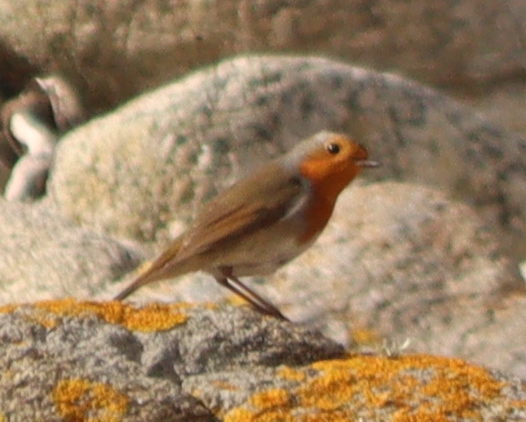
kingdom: Animalia
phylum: Chordata
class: Aves
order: Passeriformes
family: Muscicapidae
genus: Erithacus
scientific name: Erithacus rubecula
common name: European robin
